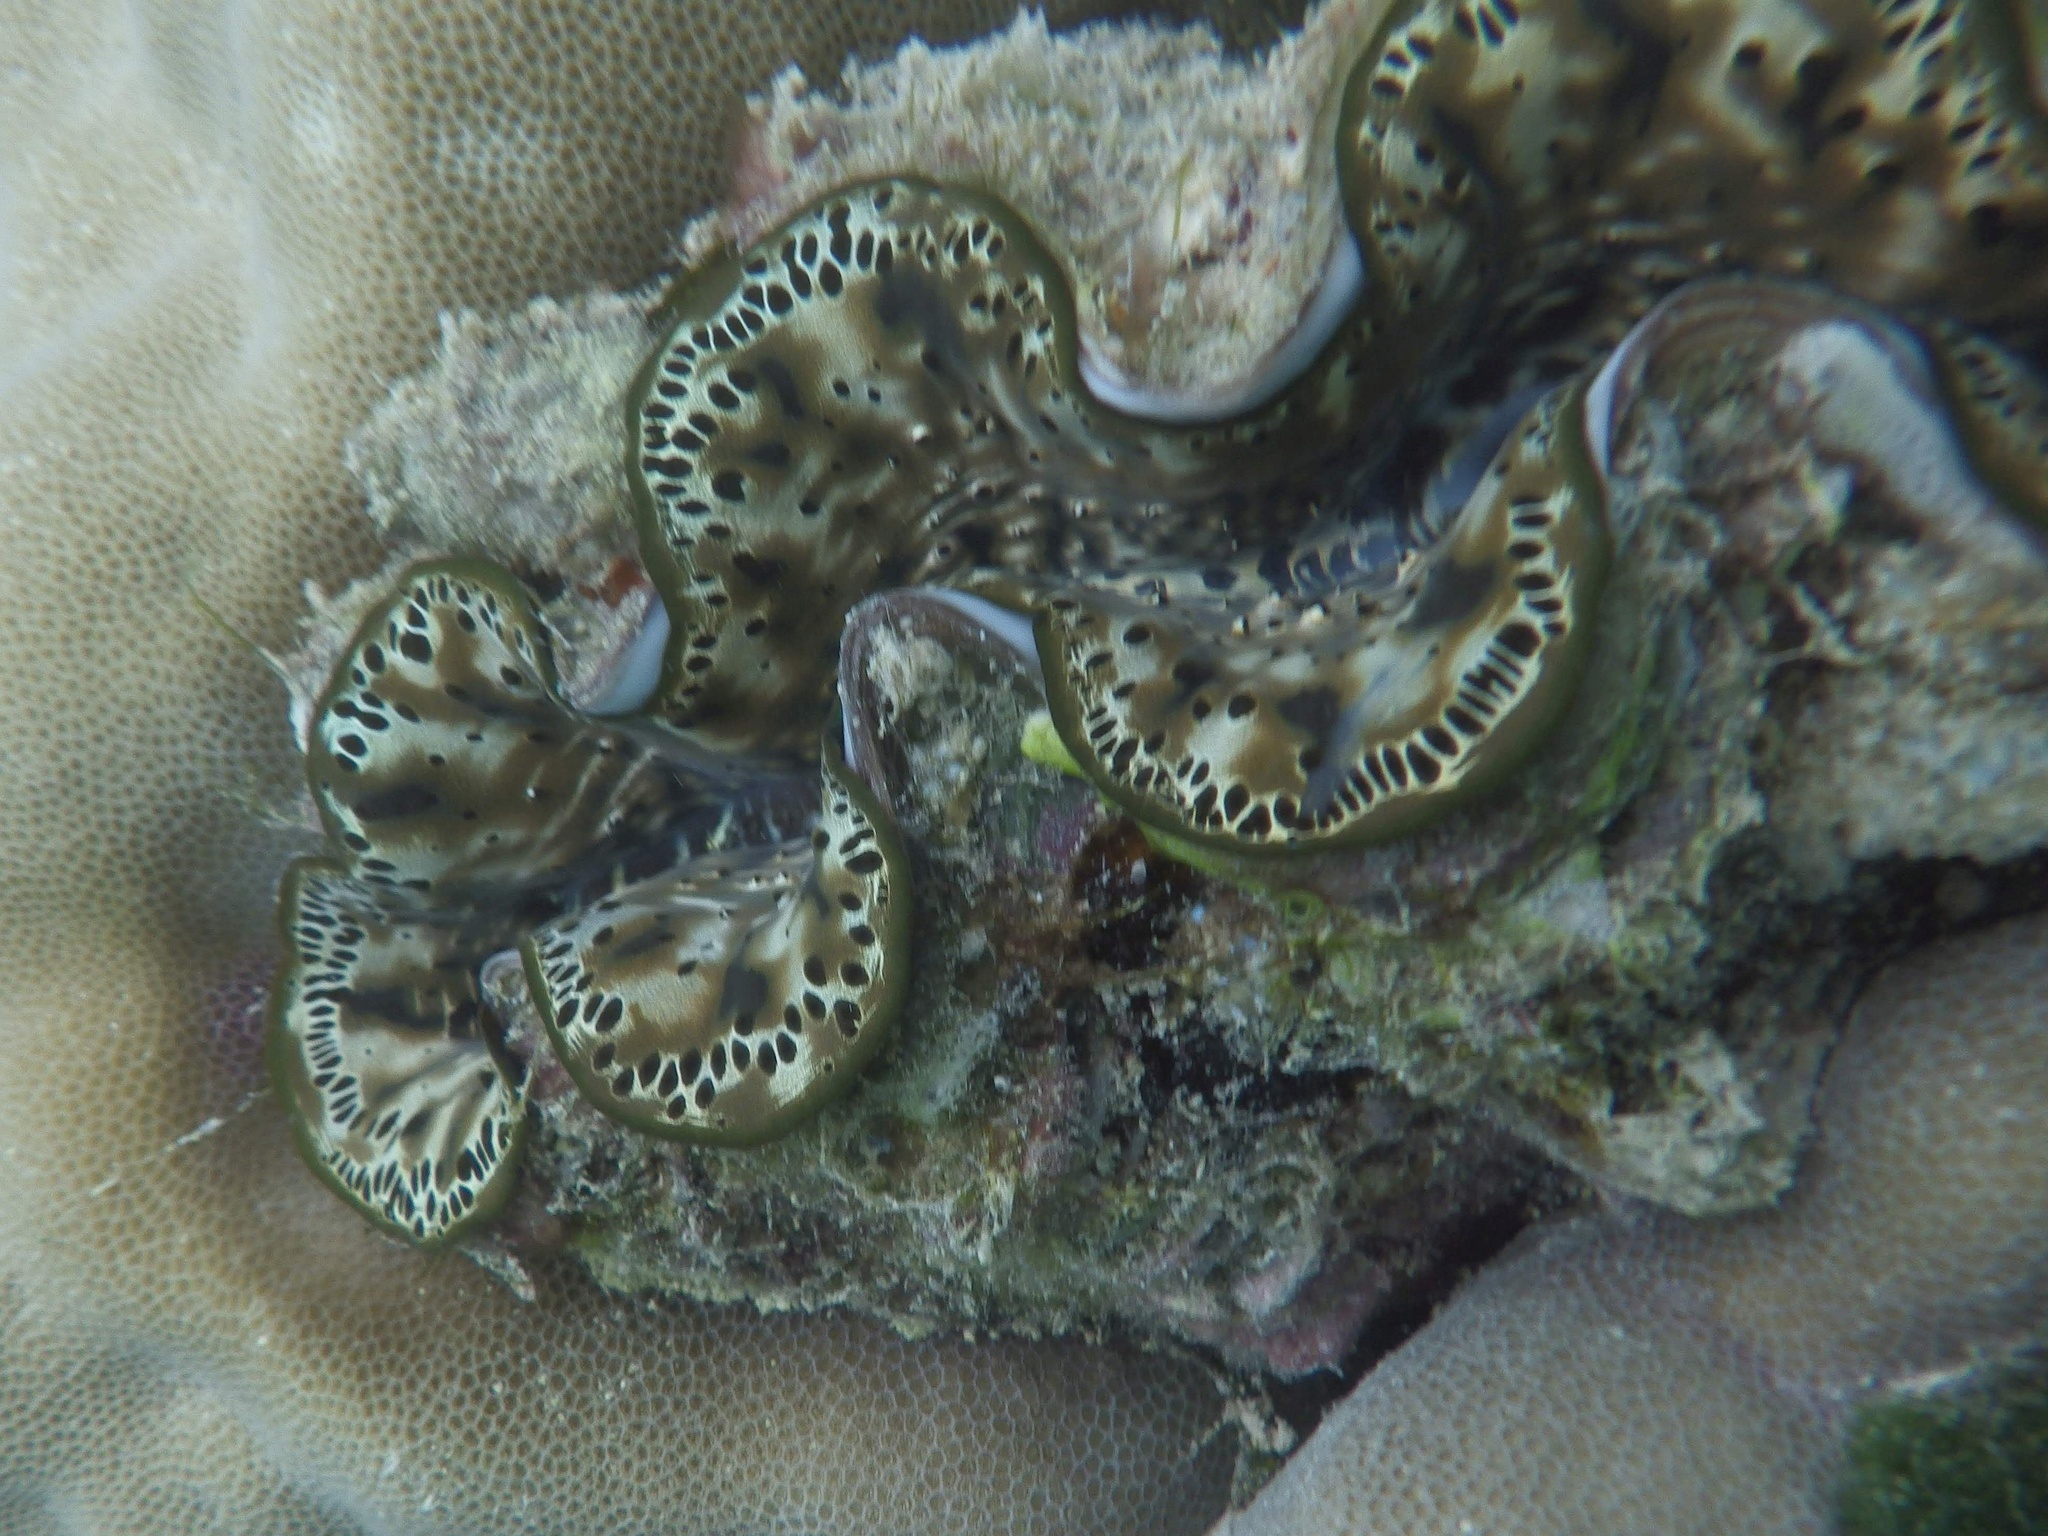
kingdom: Animalia
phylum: Mollusca
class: Bivalvia
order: Cardiida
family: Cardiidae
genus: Tridacna
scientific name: Tridacna maxima
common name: Small giant clam
